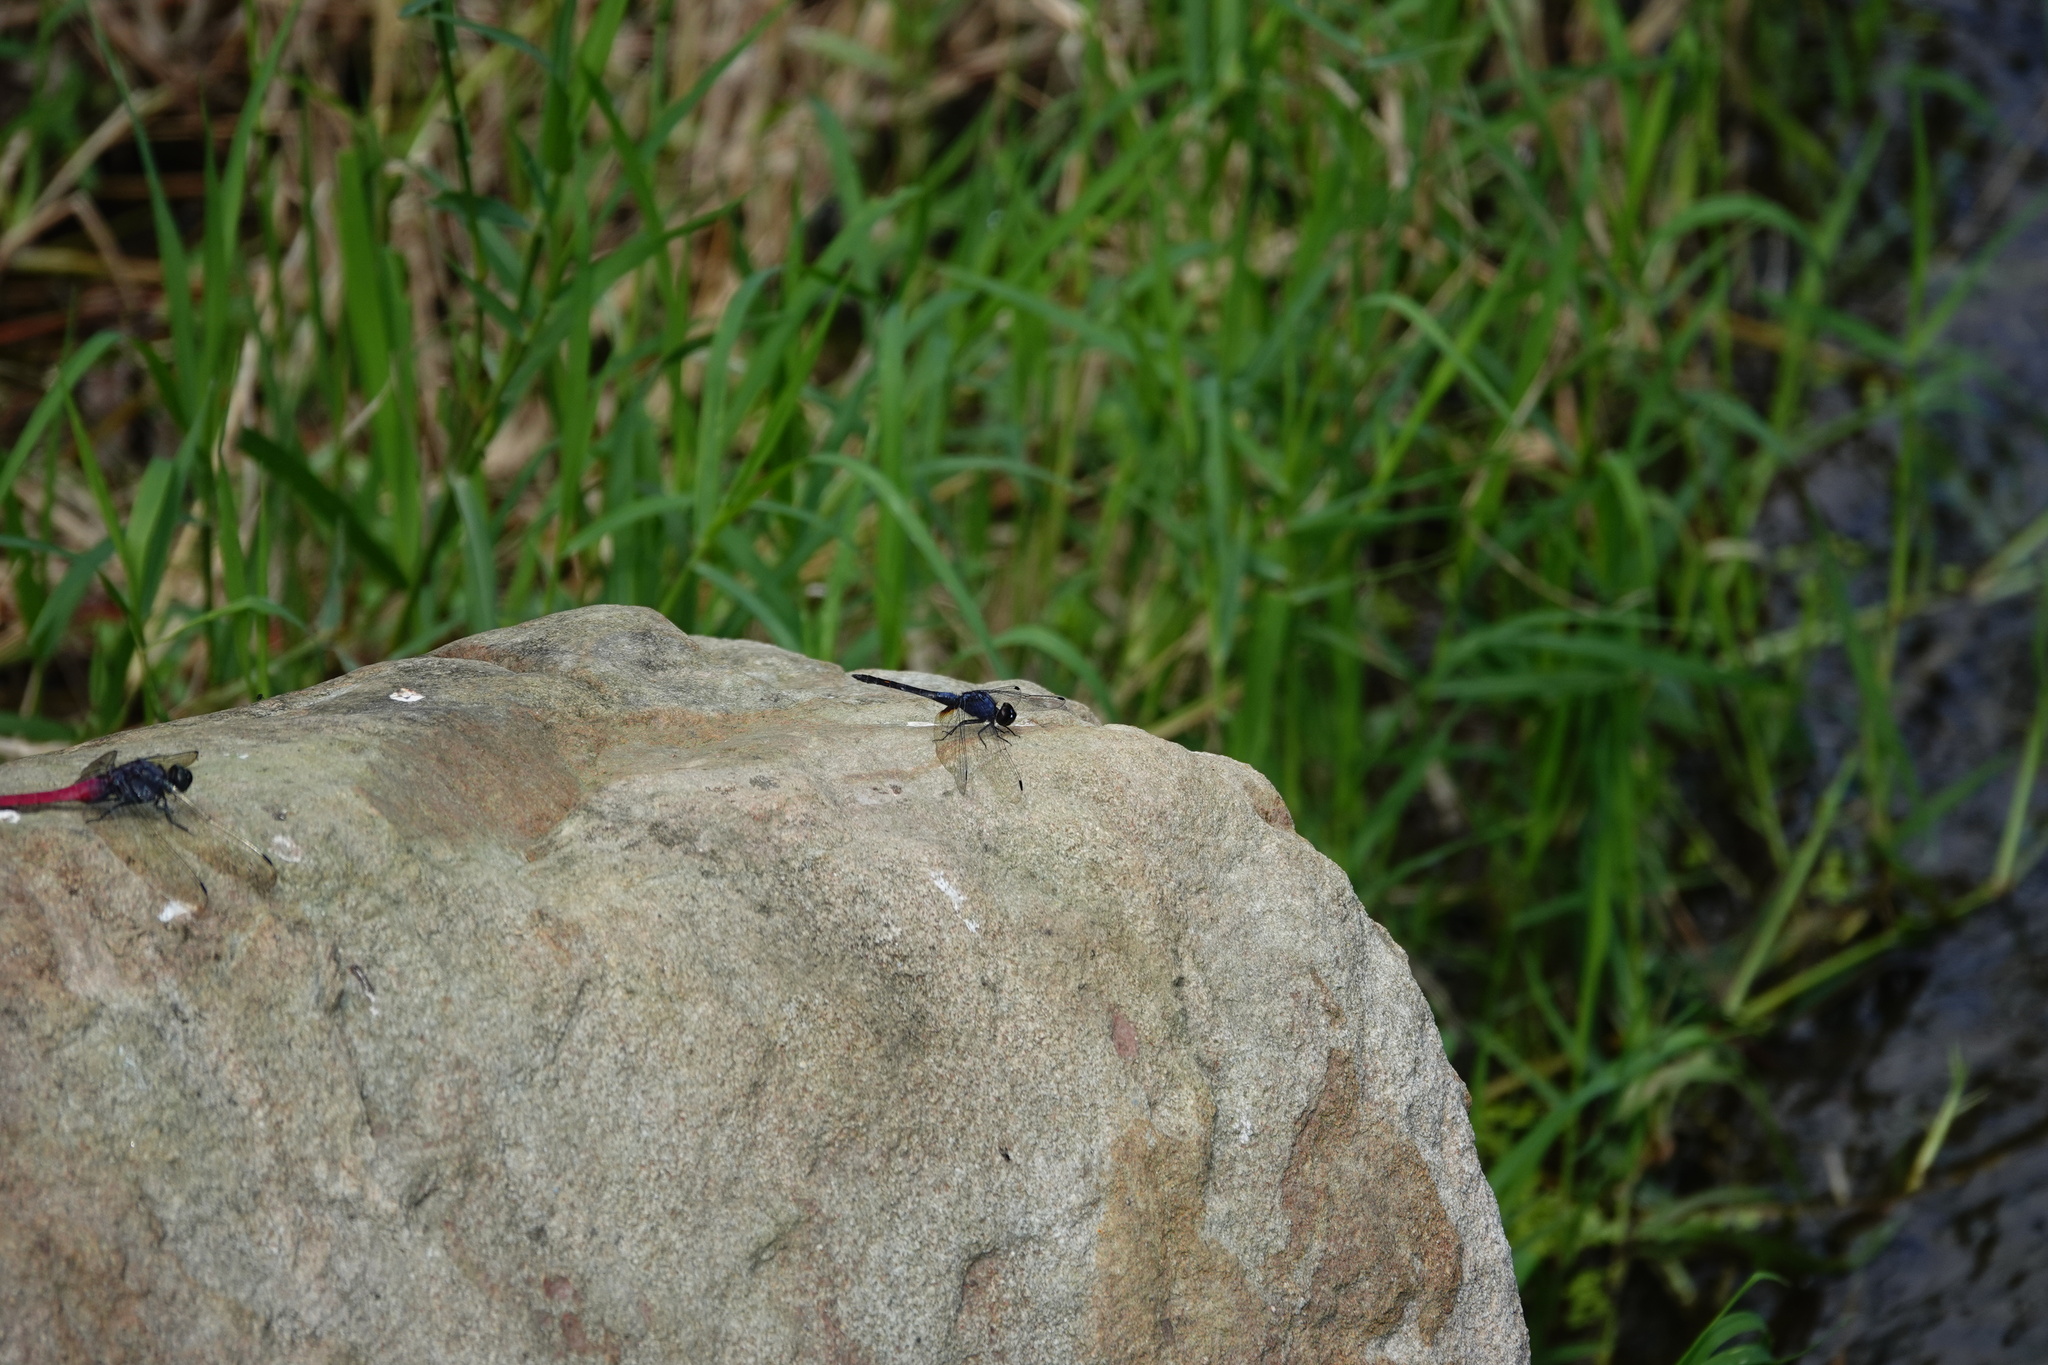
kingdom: Animalia
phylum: Arthropoda
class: Insecta
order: Odonata
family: Libellulidae
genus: Trithemis
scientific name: Trithemis festiva
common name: Indigo dropwing
